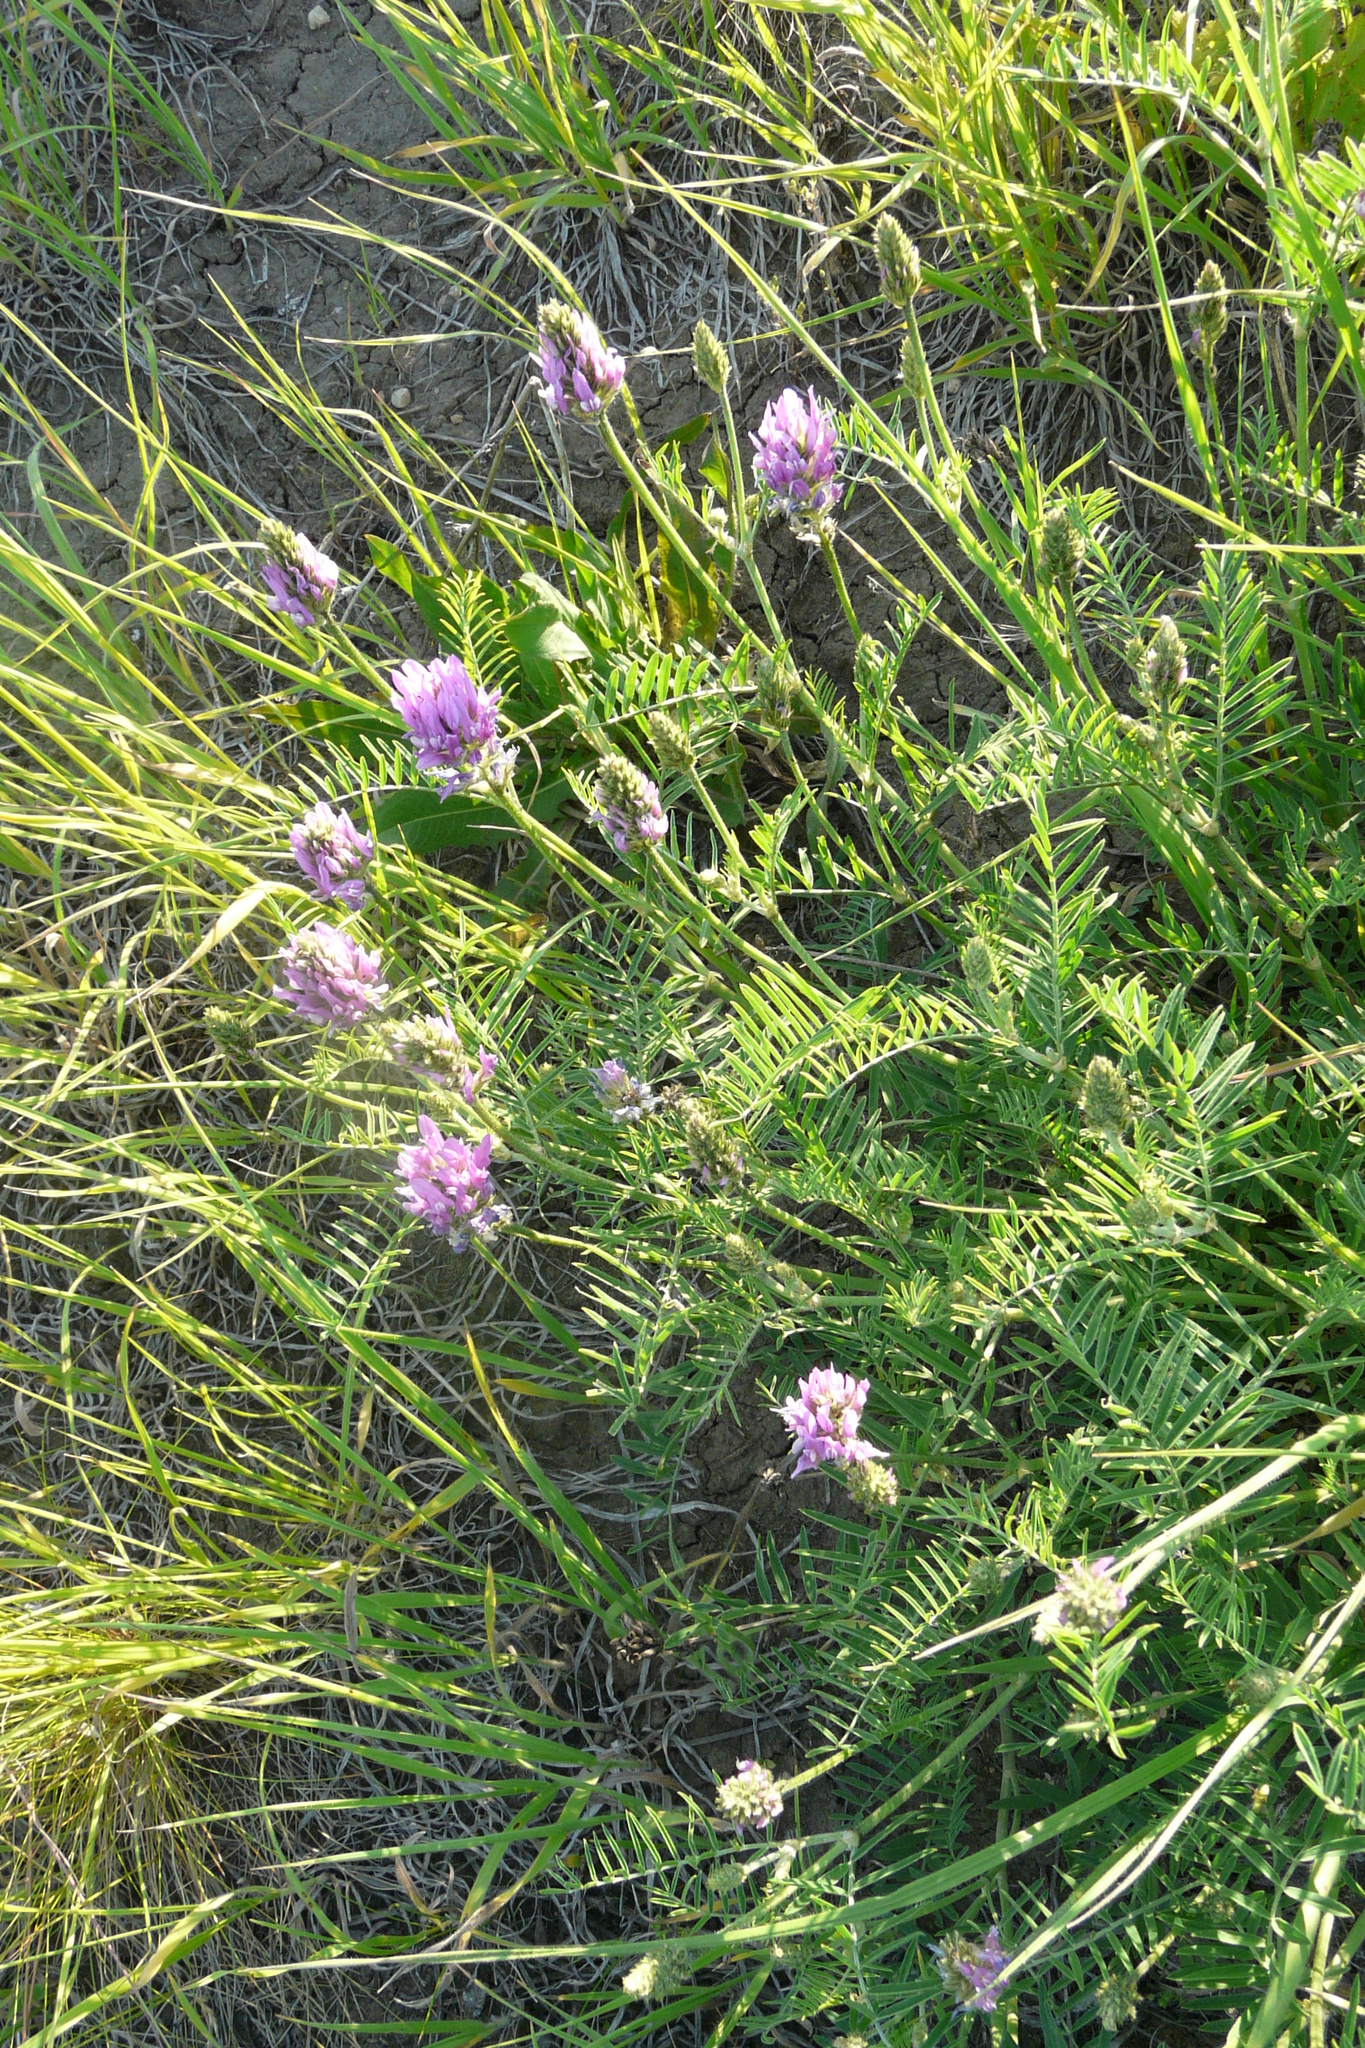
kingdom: Plantae
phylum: Tracheophyta
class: Magnoliopsida
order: Fabales
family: Fabaceae
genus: Astragalus
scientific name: Astragalus onobrychis
